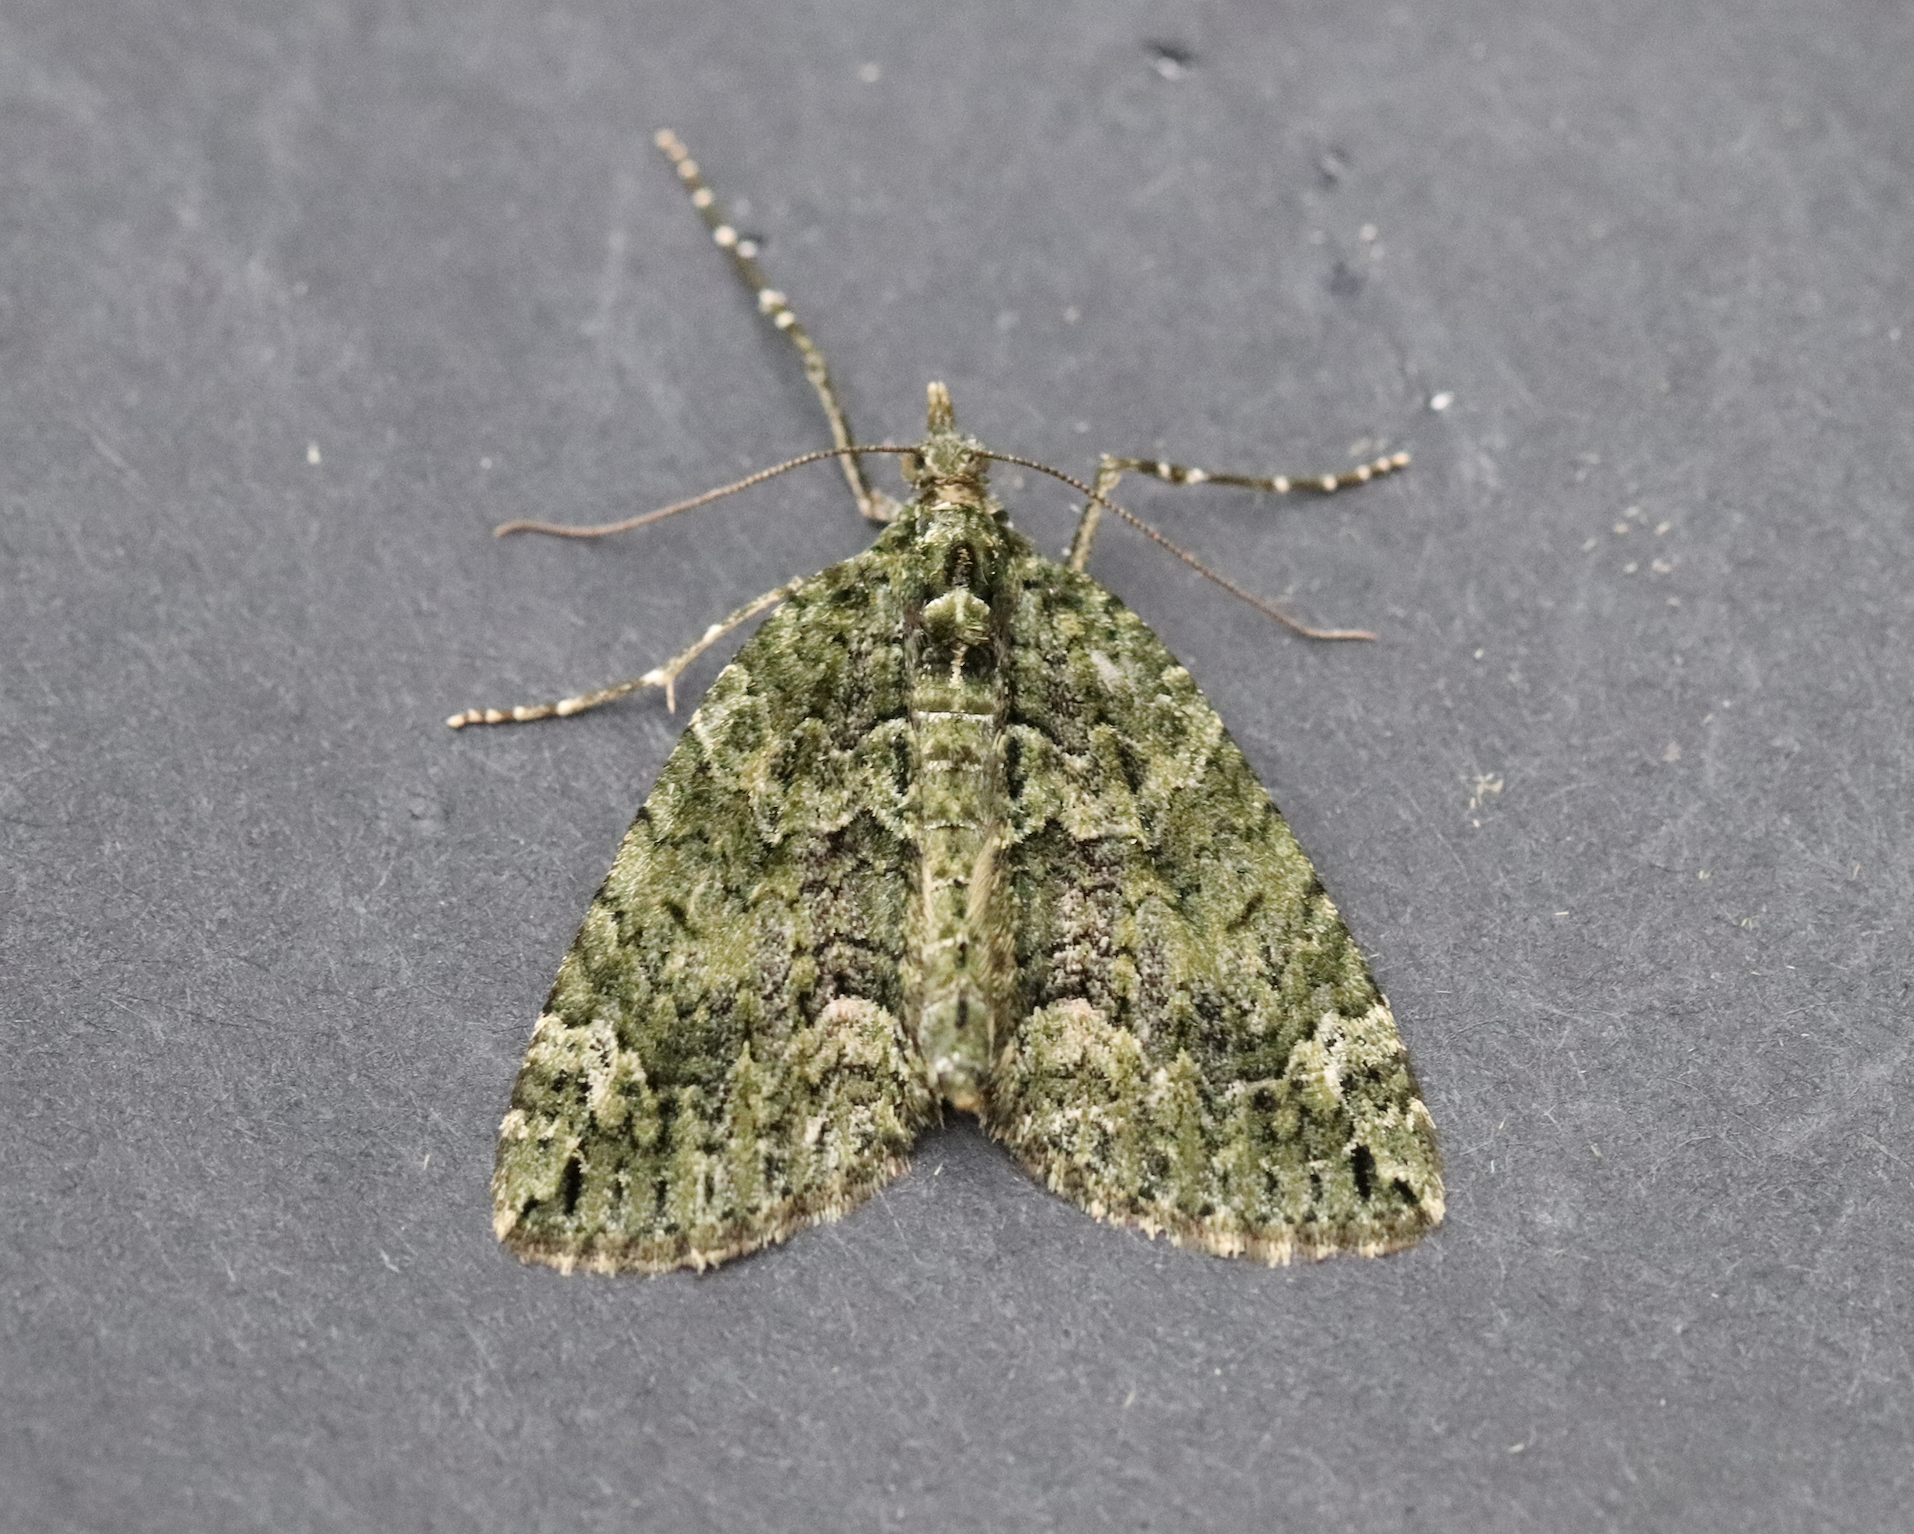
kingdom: Animalia
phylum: Arthropoda
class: Insecta
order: Lepidoptera
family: Geometridae
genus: Chloroclysta
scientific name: Chloroclysta siterata
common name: Red-green carpet
